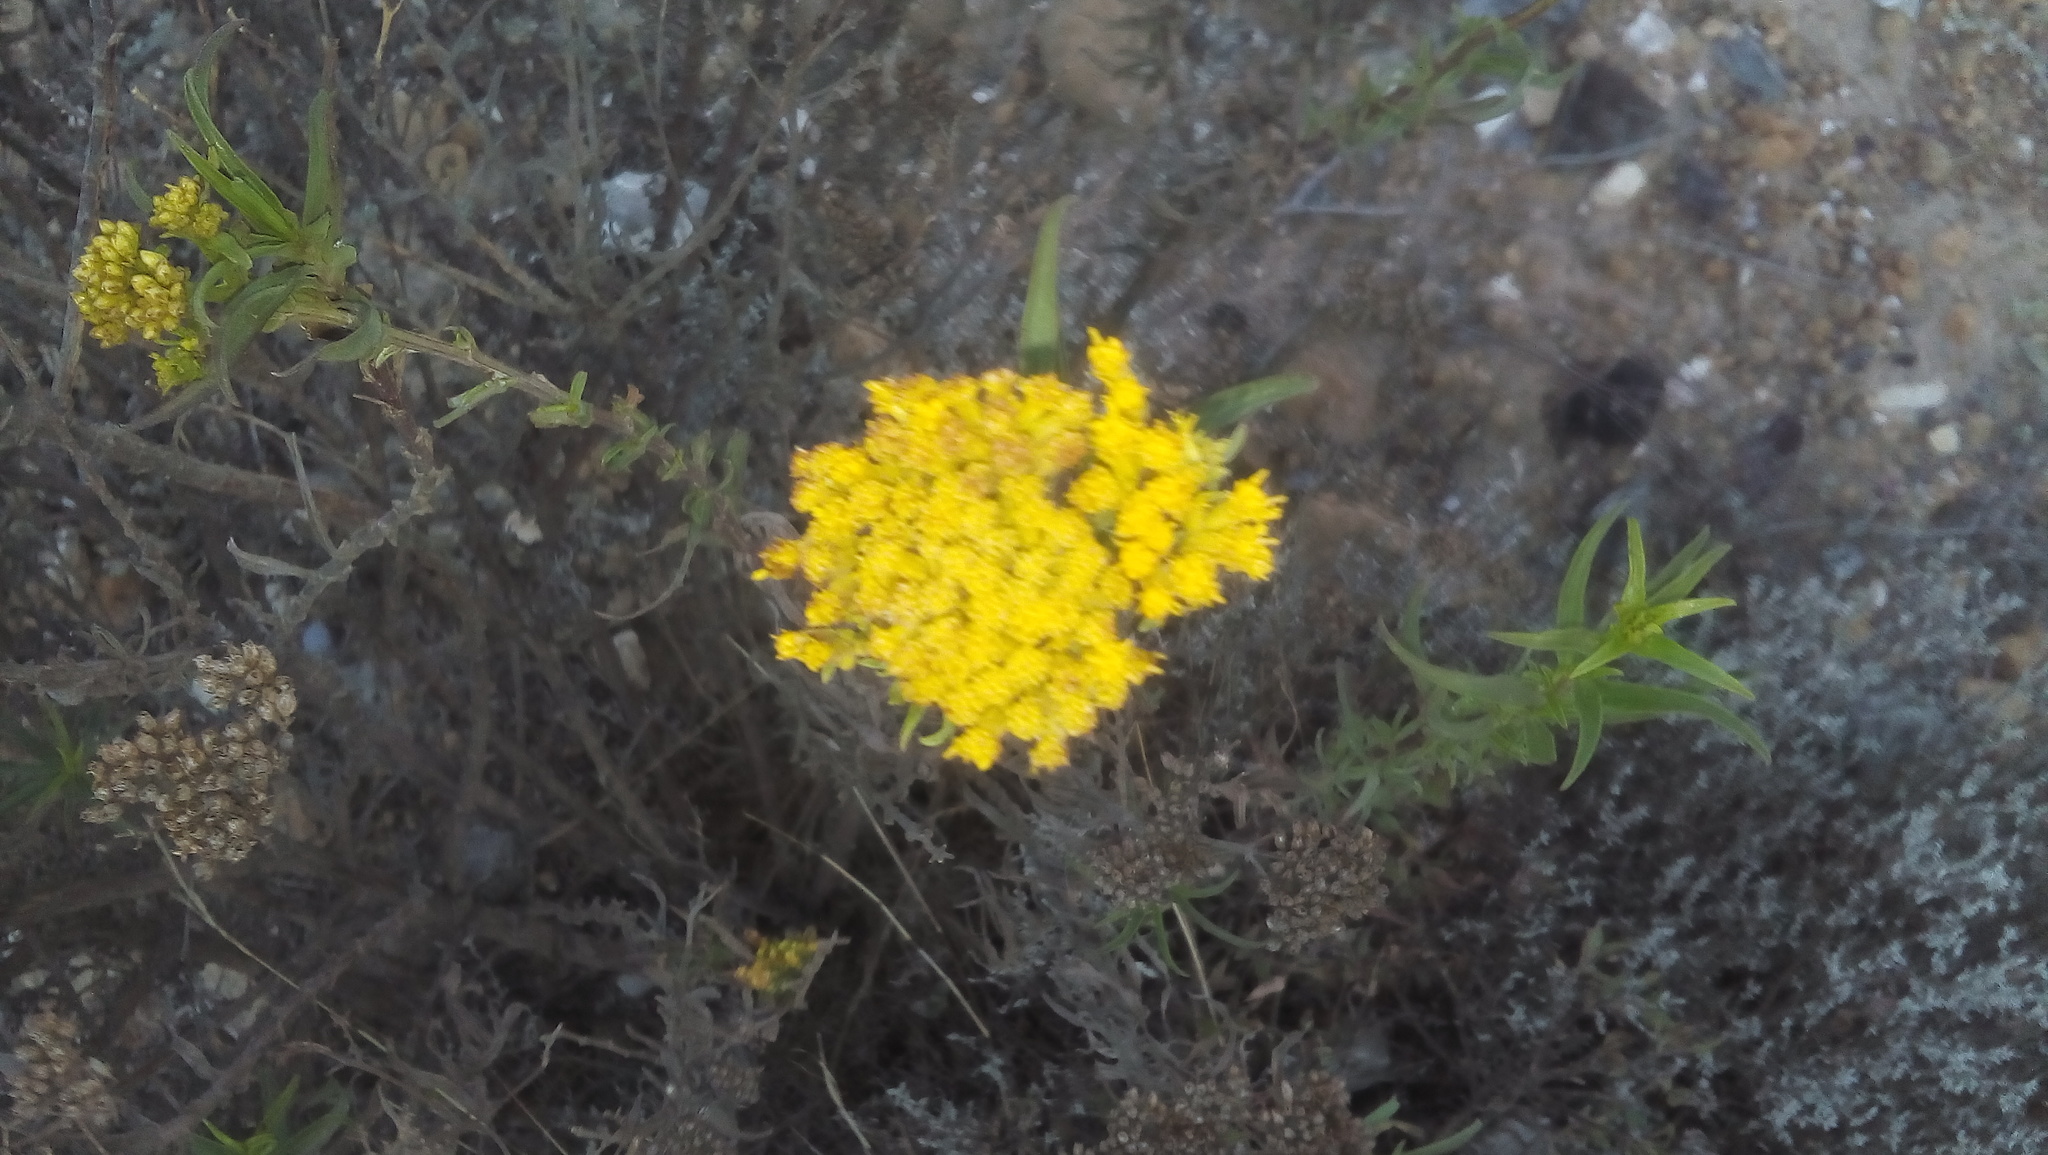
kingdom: Plantae
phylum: Tracheophyta
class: Magnoliopsida
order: Asterales
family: Asteraceae
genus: Gymnosperma
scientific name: Gymnosperma glutinosum
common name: Gumhead
